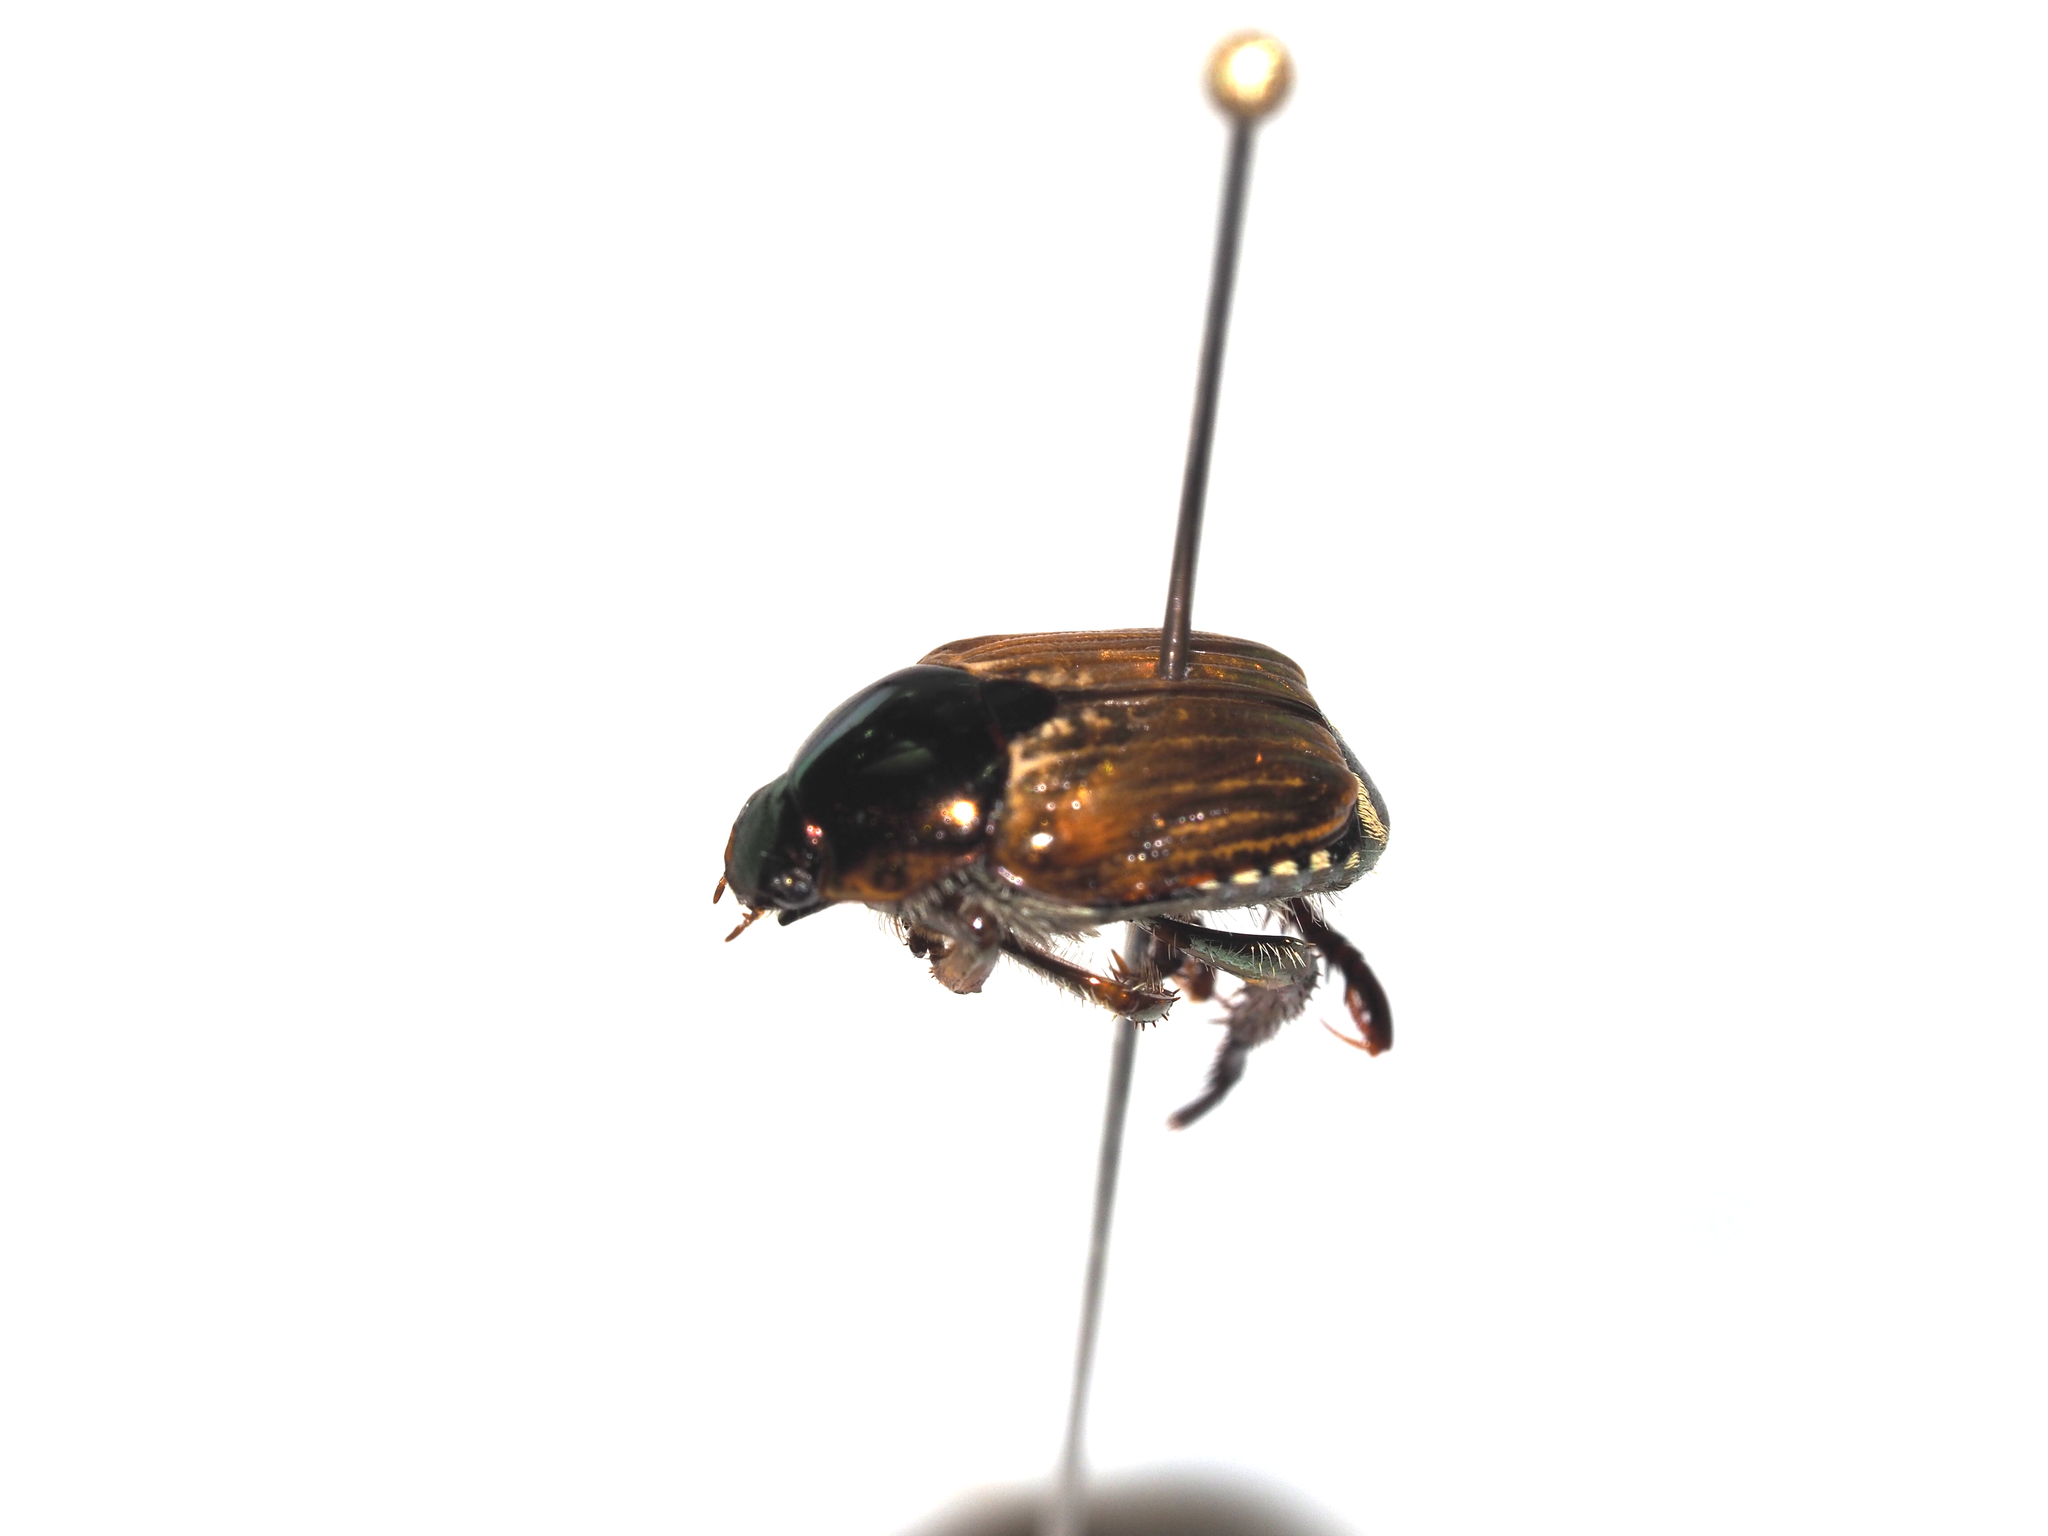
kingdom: Animalia
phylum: Arthropoda
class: Insecta
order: Coleoptera
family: Scarabaeidae
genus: Popillia
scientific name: Popillia lewisi
